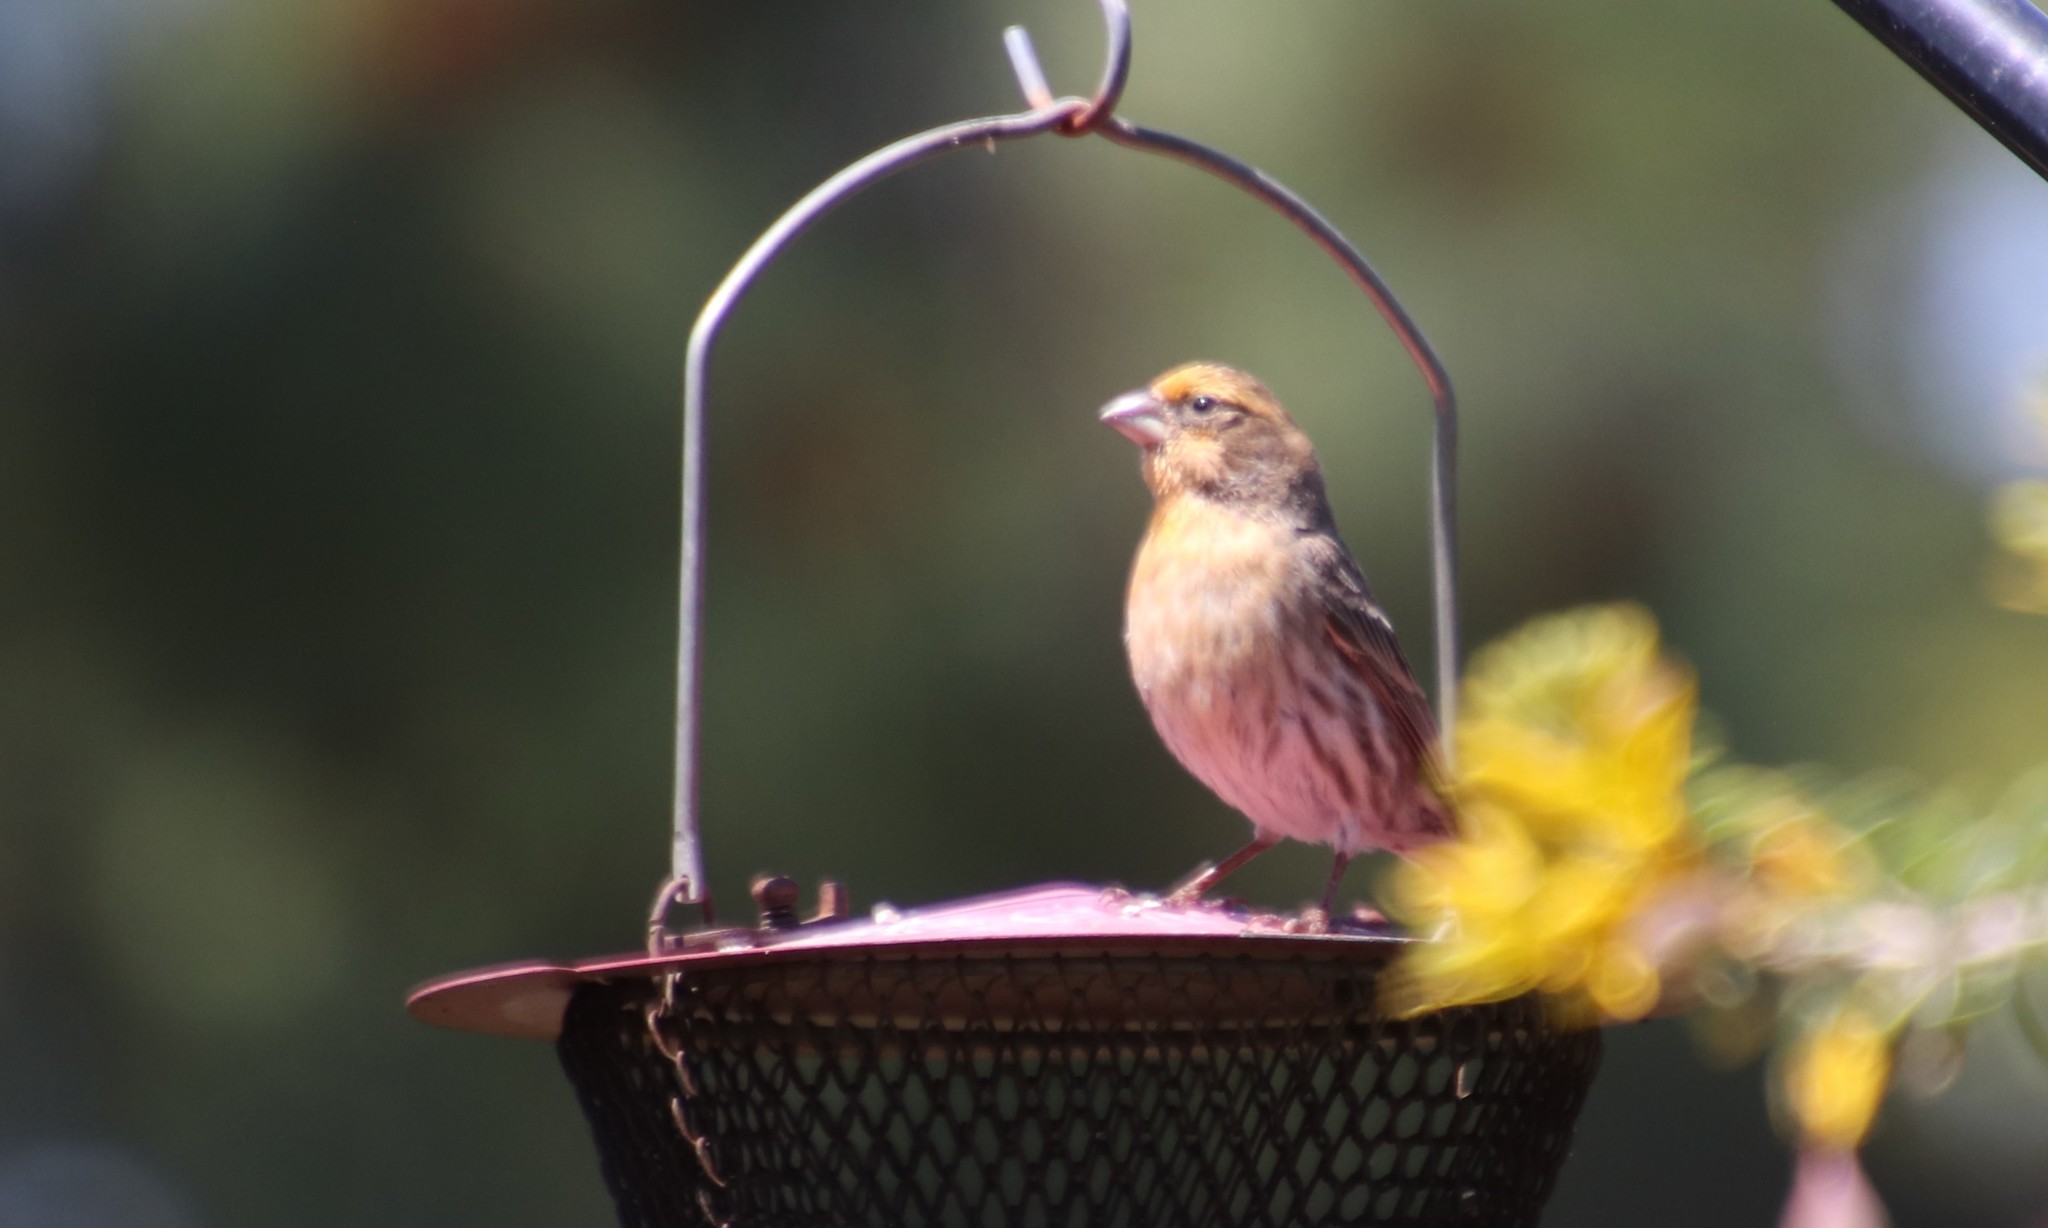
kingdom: Animalia
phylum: Chordata
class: Aves
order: Passeriformes
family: Fringillidae
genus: Haemorhous
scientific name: Haemorhous mexicanus
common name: House finch
